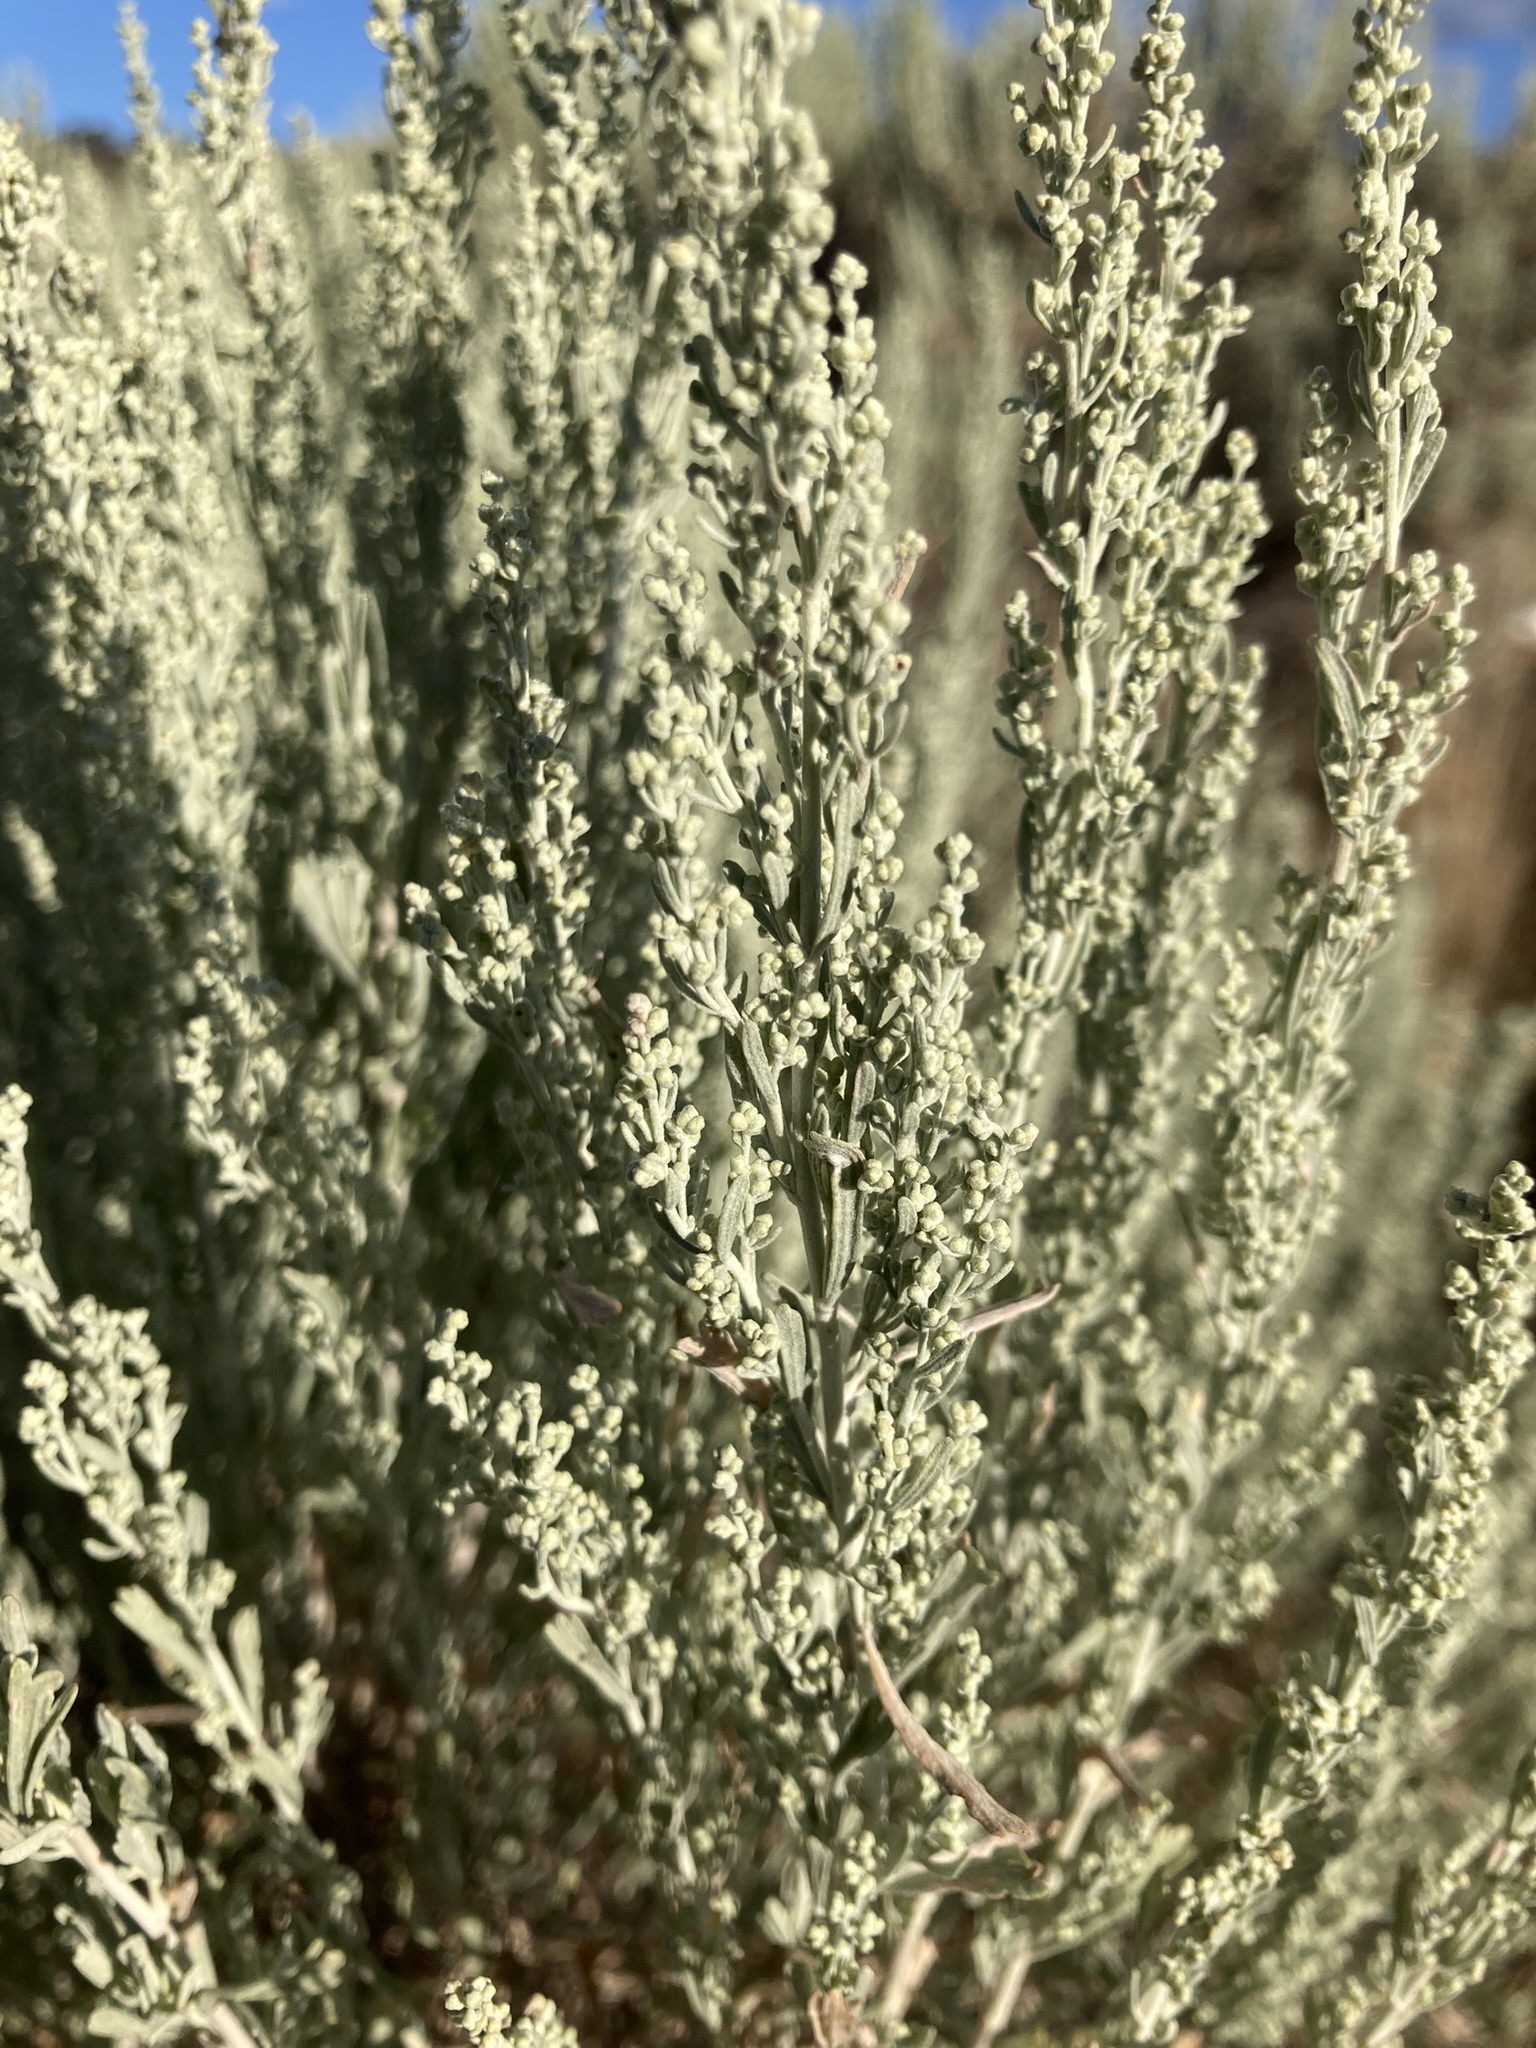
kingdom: Plantae
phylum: Tracheophyta
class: Magnoliopsida
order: Asterales
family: Asteraceae
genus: Artemisia
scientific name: Artemisia tridentata
